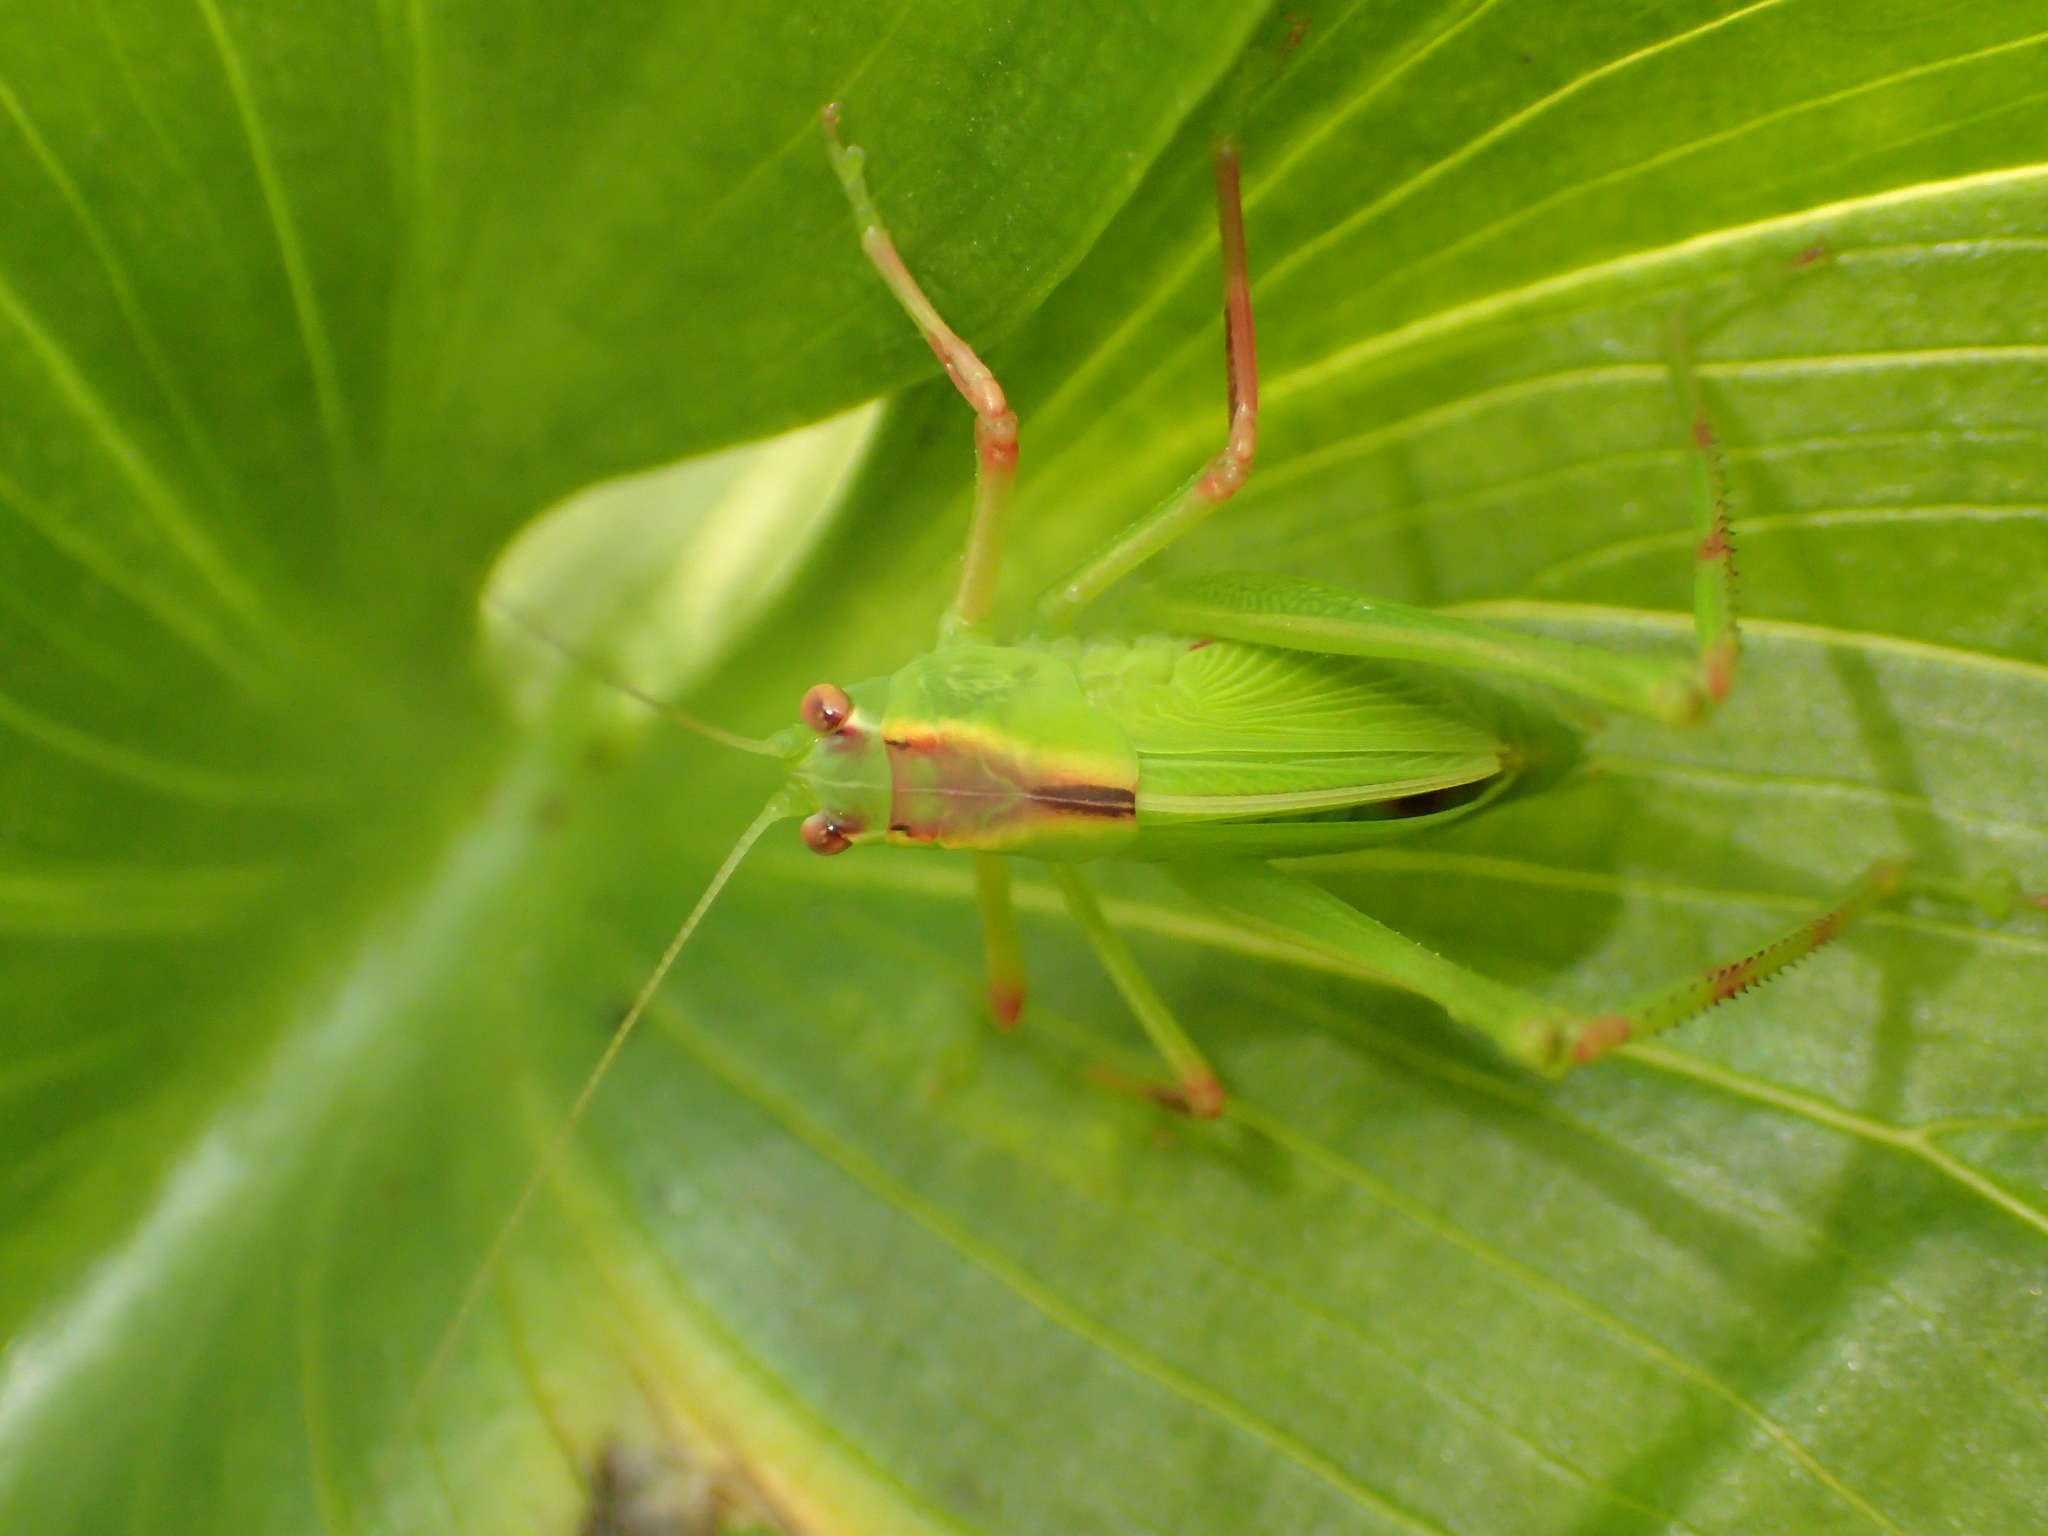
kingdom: Animalia
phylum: Arthropoda
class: Insecta
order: Orthoptera
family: Tettigoniidae
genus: Caedicia
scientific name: Caedicia simplex
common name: Common garden katydid
